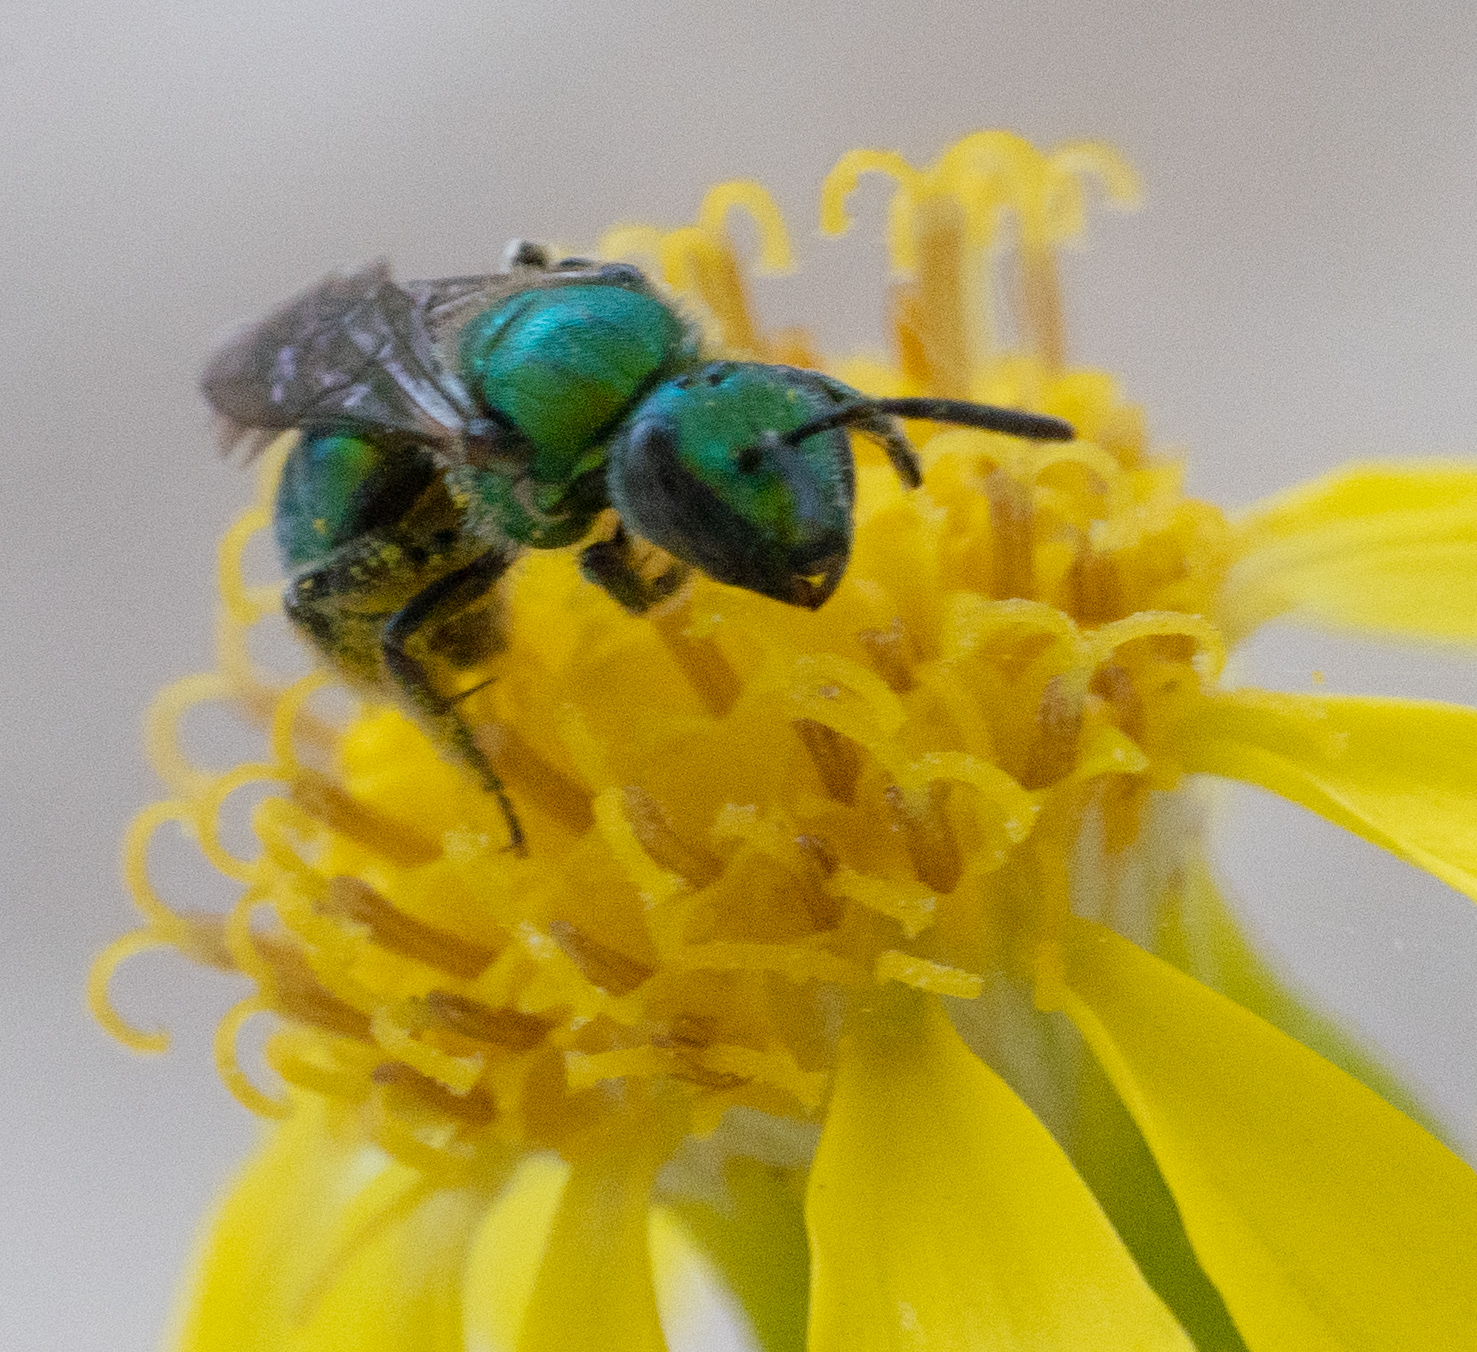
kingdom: Animalia
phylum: Arthropoda
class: Insecta
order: Hymenoptera
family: Halictidae
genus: Augochlorella
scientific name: Augochlorella pomoniella
